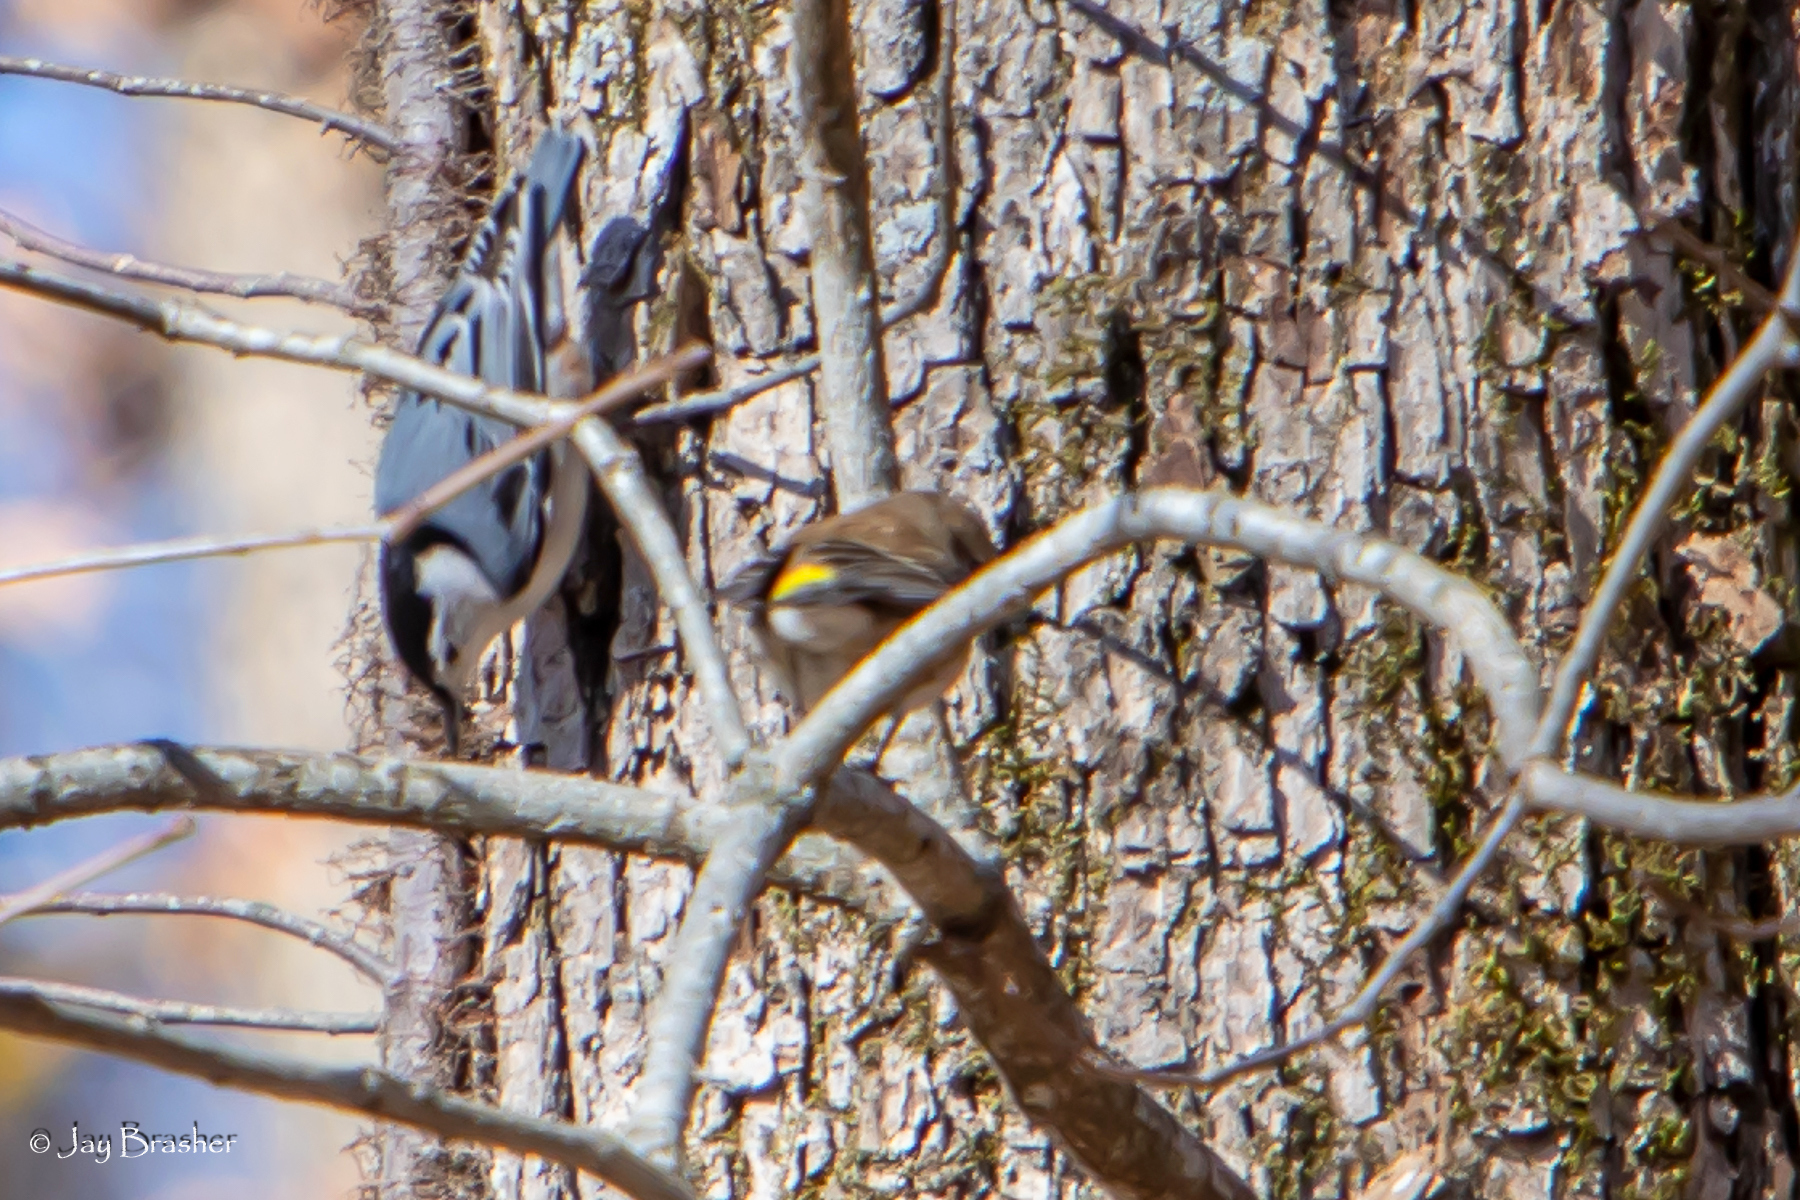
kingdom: Animalia
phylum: Chordata
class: Aves
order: Passeriformes
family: Parulidae
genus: Setophaga
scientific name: Setophaga coronata
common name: Myrtle warbler
